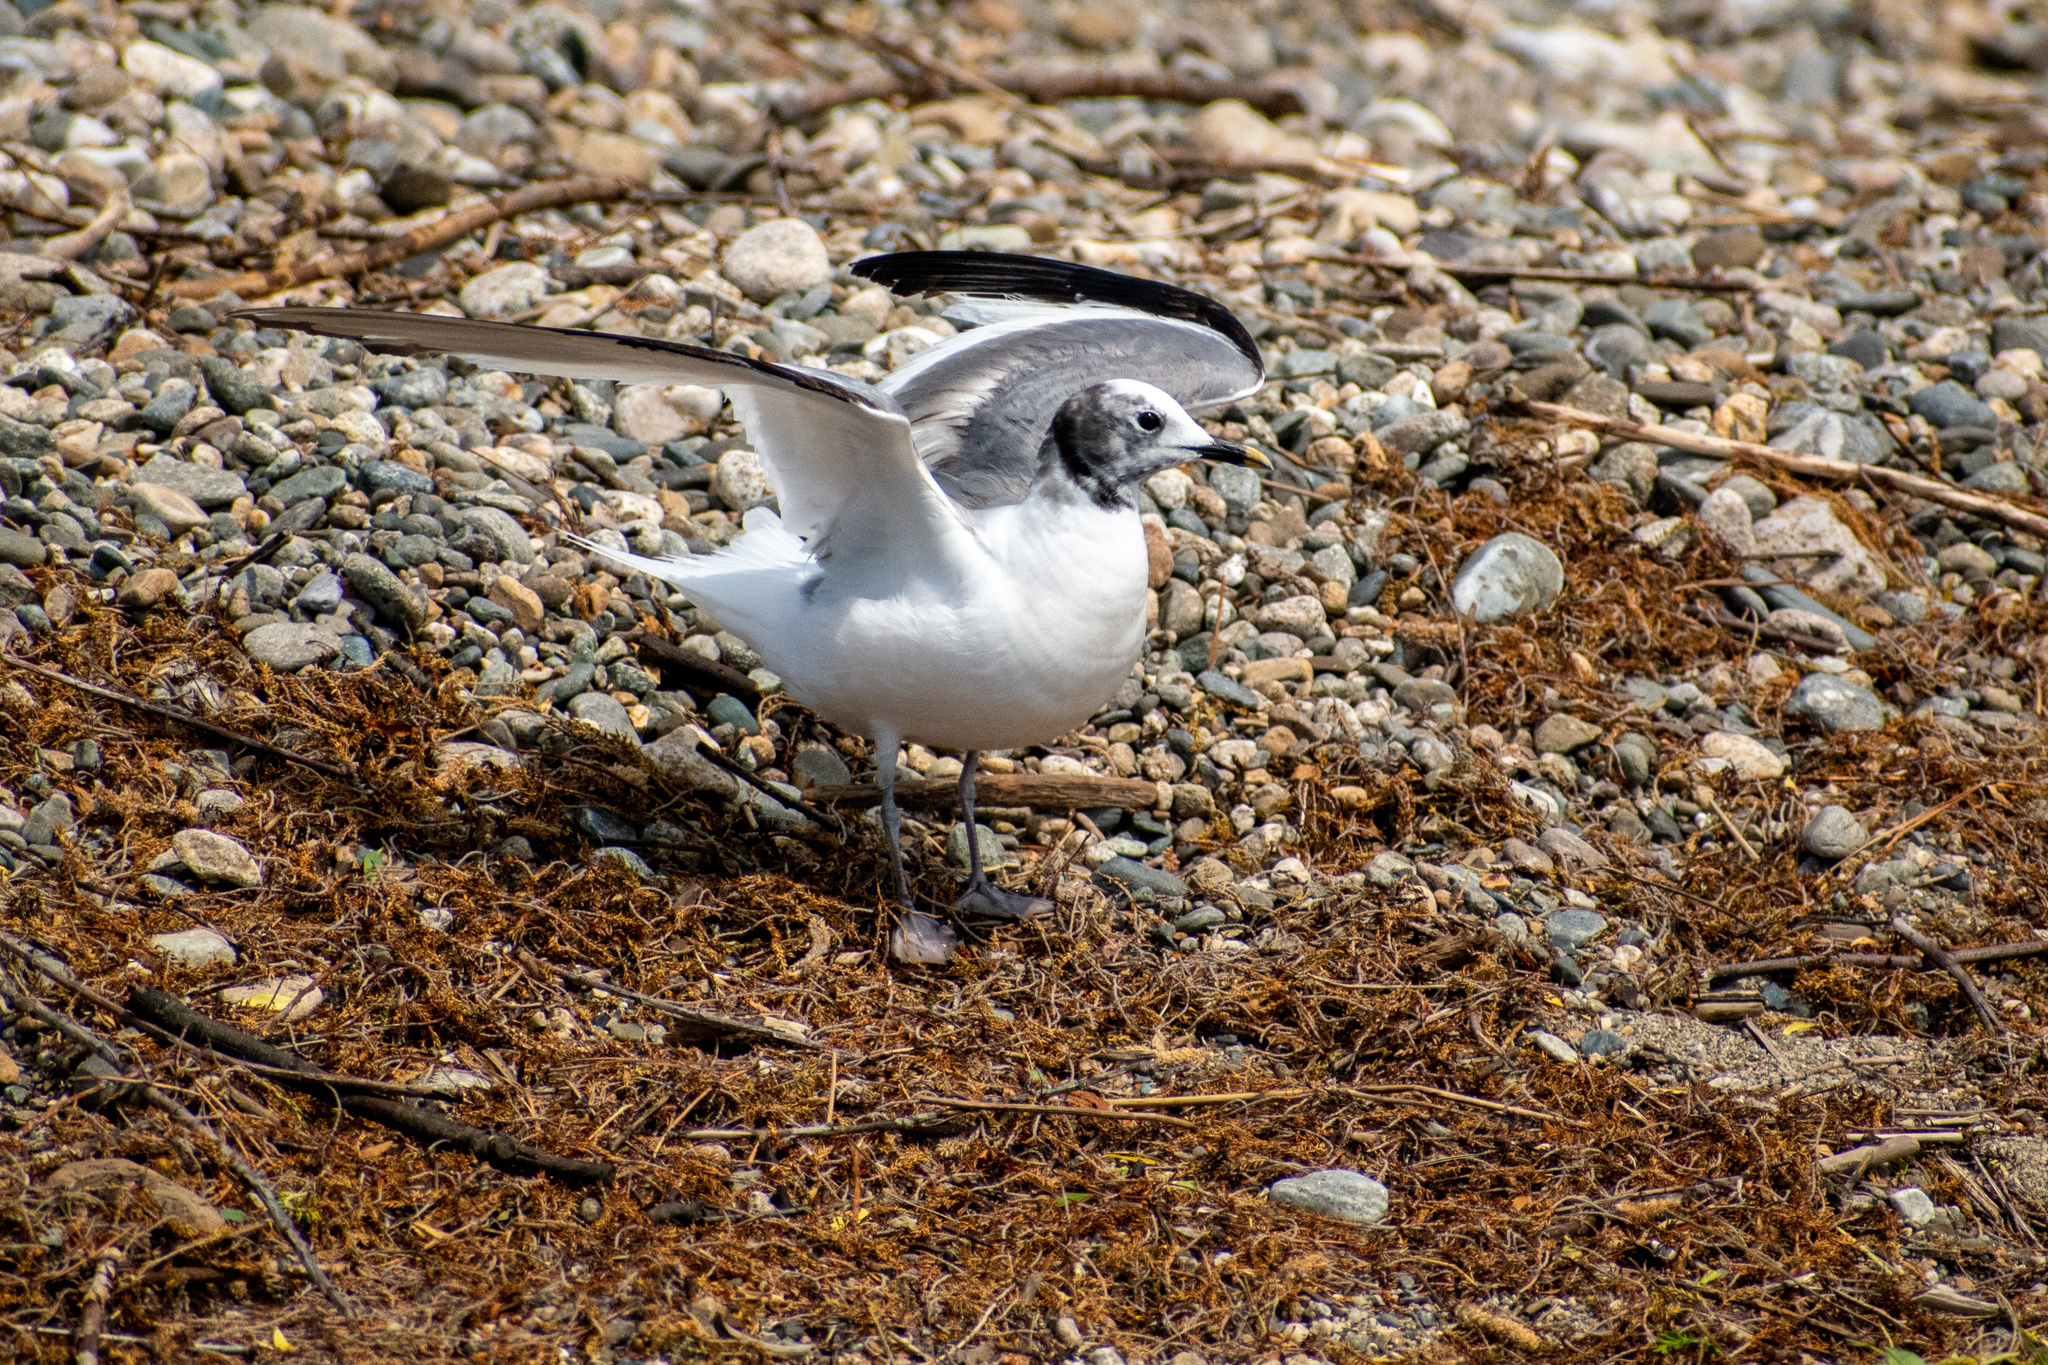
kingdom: Animalia
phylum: Chordata
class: Aves
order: Charadriiformes
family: Laridae
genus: Xema
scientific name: Xema sabini
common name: Sabine's gull
